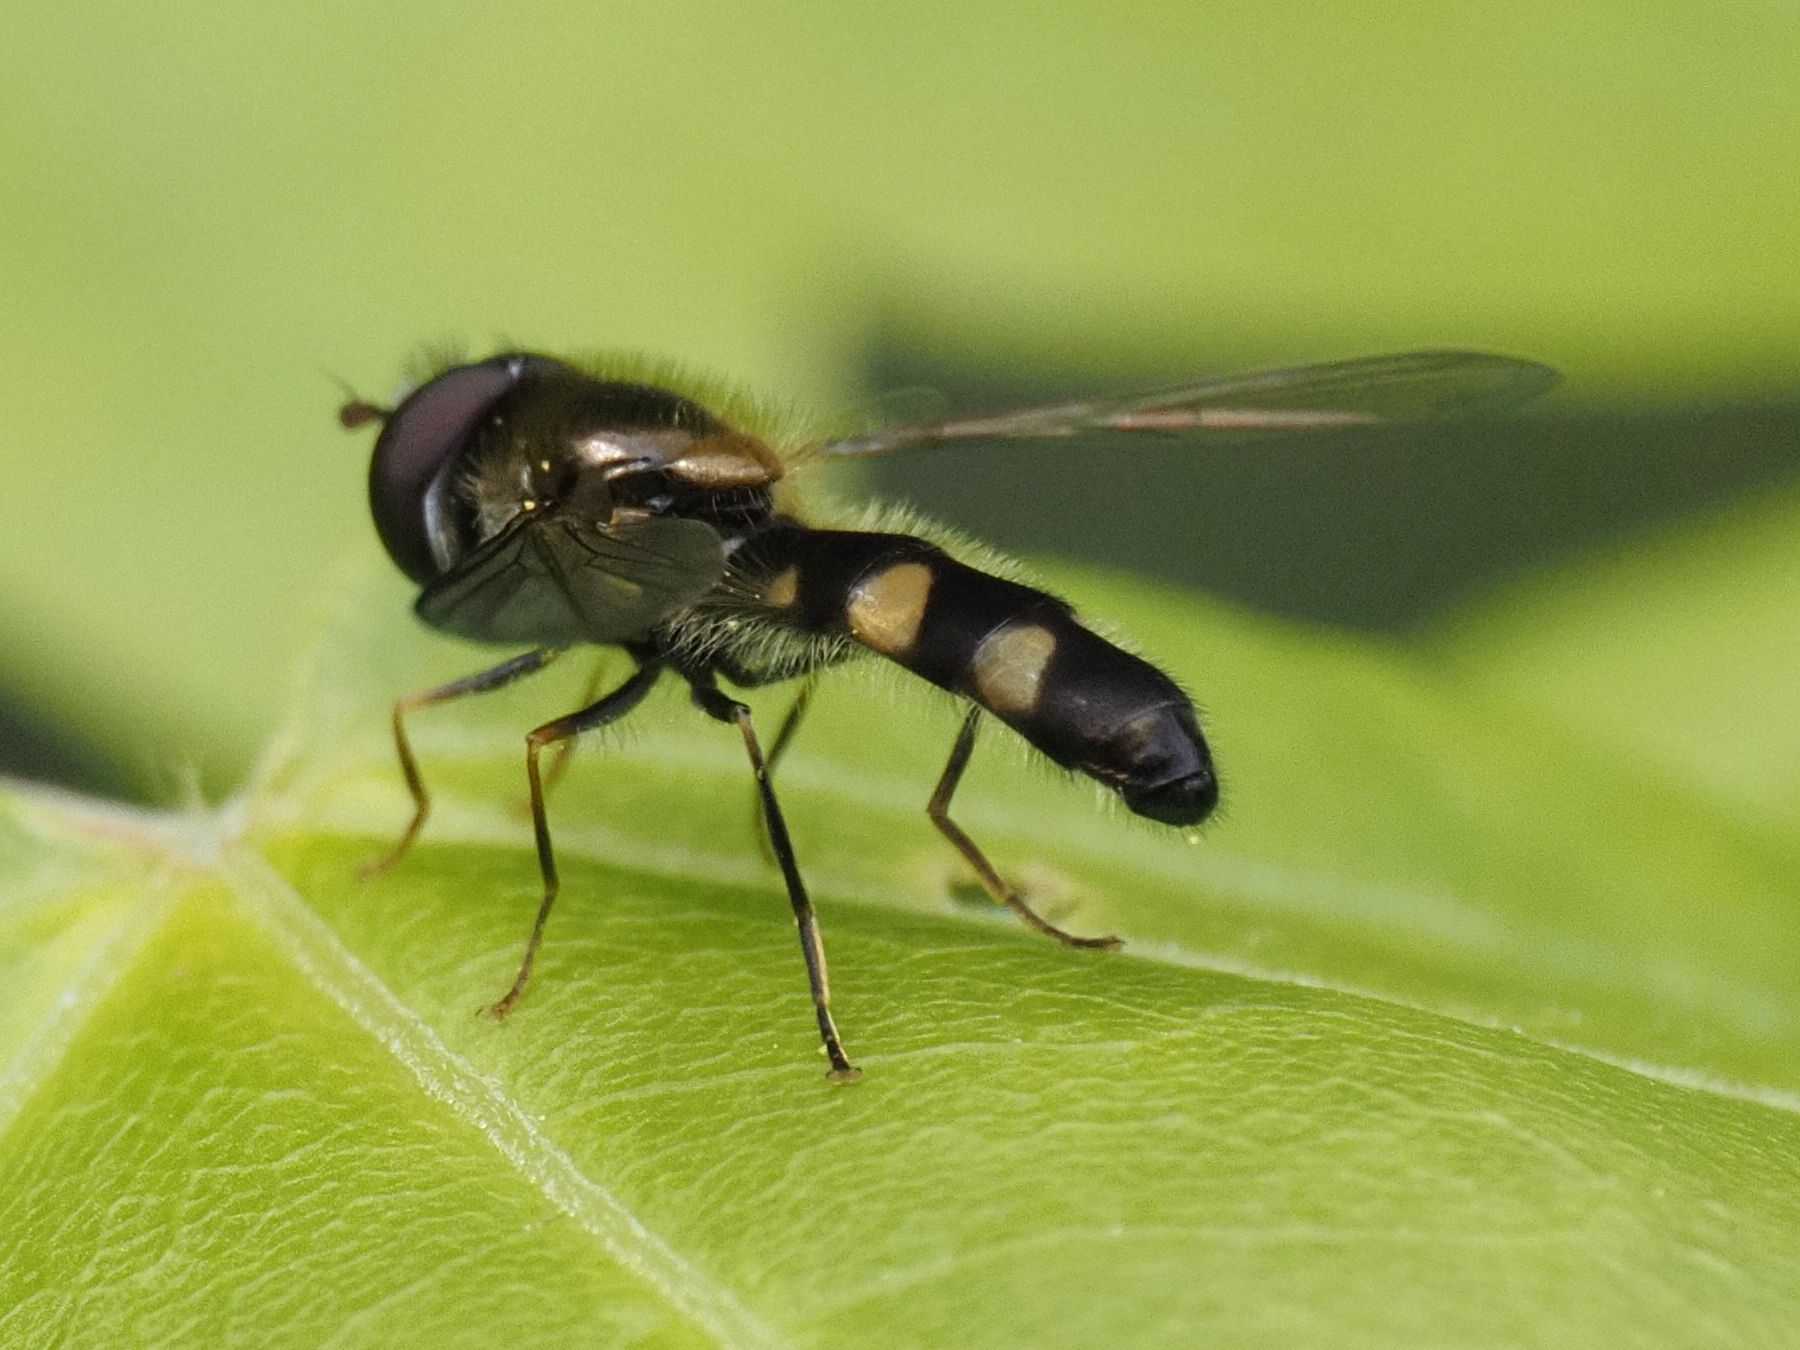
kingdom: Animalia
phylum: Arthropoda
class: Insecta
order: Diptera
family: Syrphidae
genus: Meligramma
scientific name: Meligramma triangulifera
